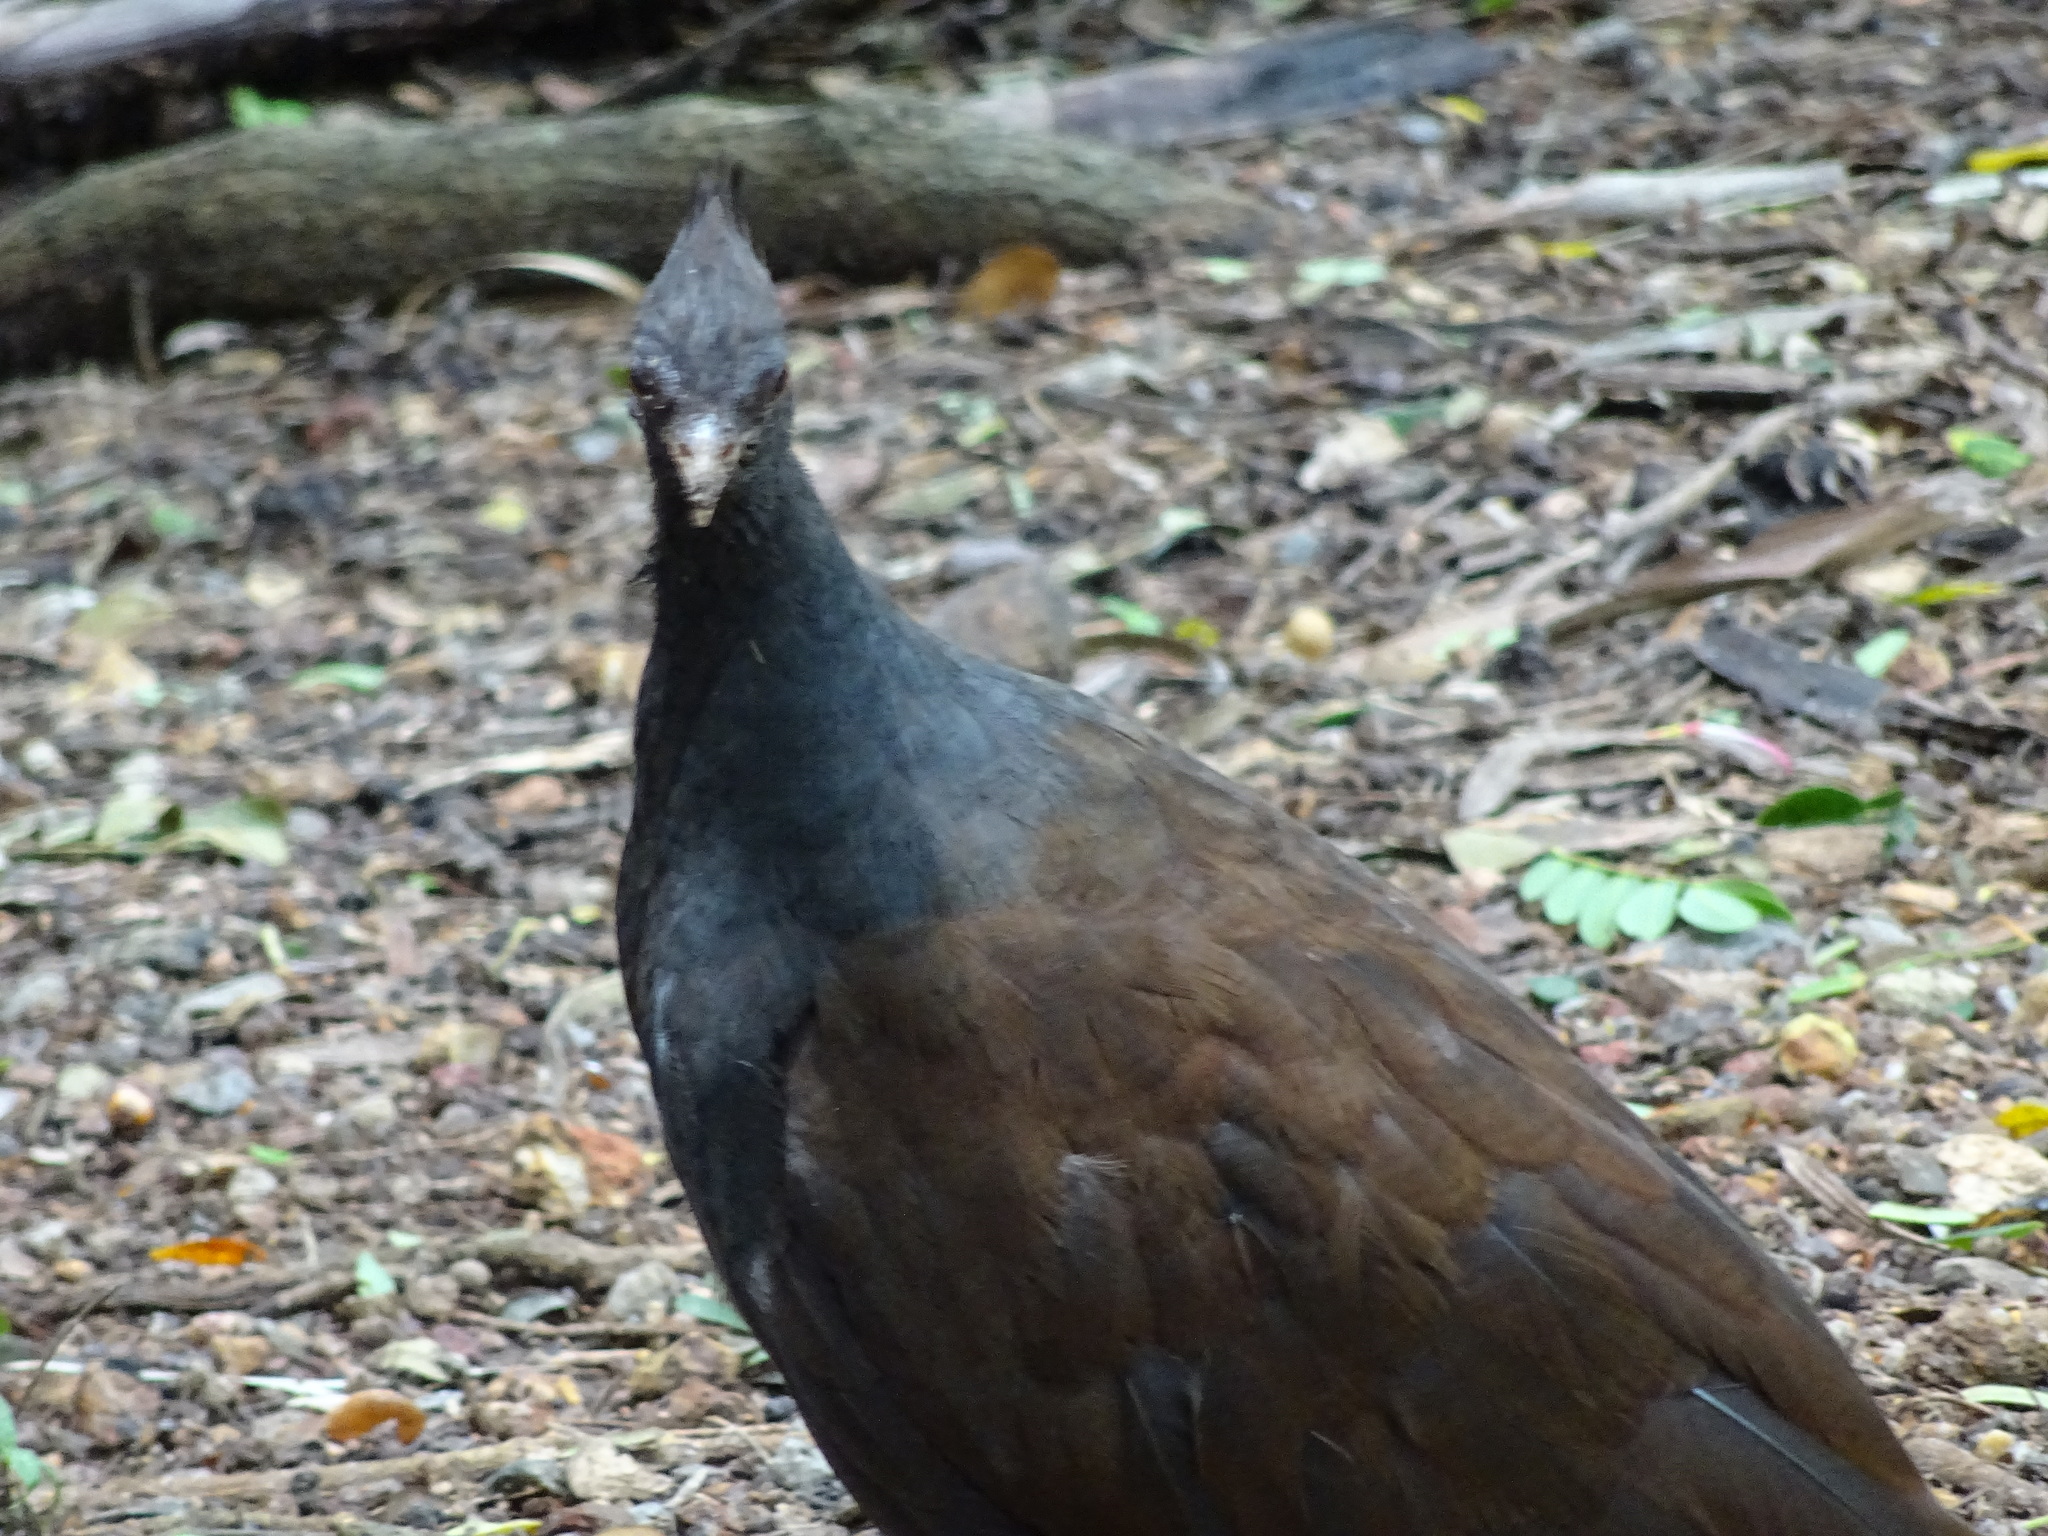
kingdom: Animalia
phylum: Chordata
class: Aves
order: Galliformes
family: Megapodiidae
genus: Megapodius
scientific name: Megapodius reinwardt
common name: Orange-footed scrubfowl
